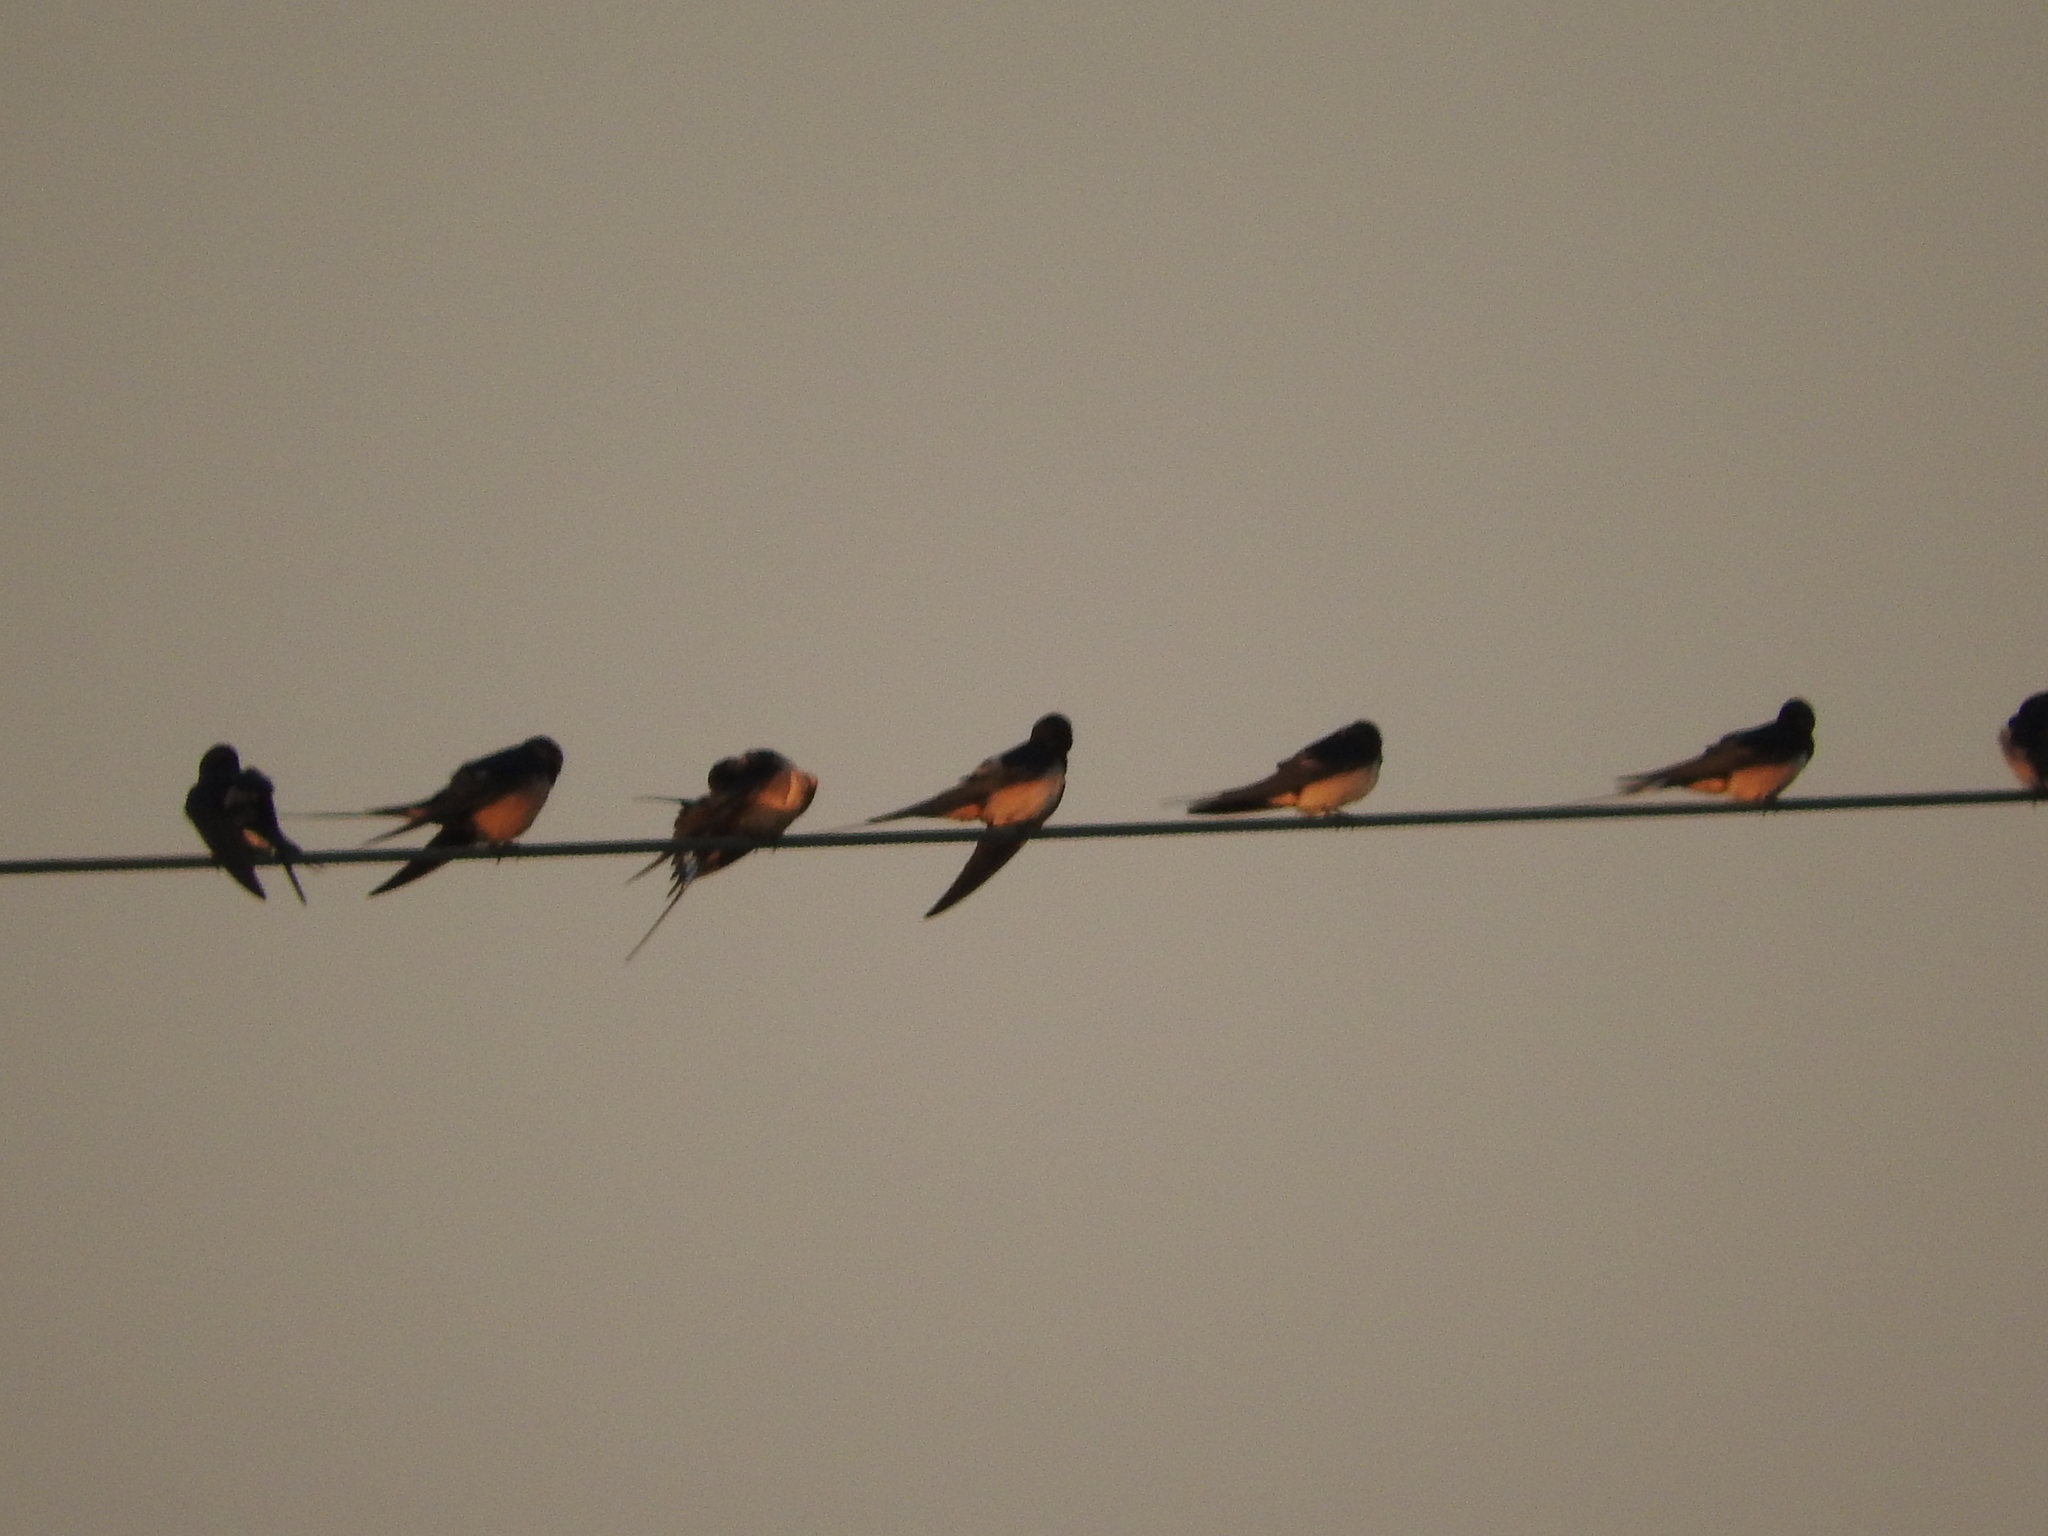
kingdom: Animalia
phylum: Chordata
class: Aves
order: Passeriformes
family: Hirundinidae
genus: Hirundo
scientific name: Hirundo rustica
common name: Barn swallow
